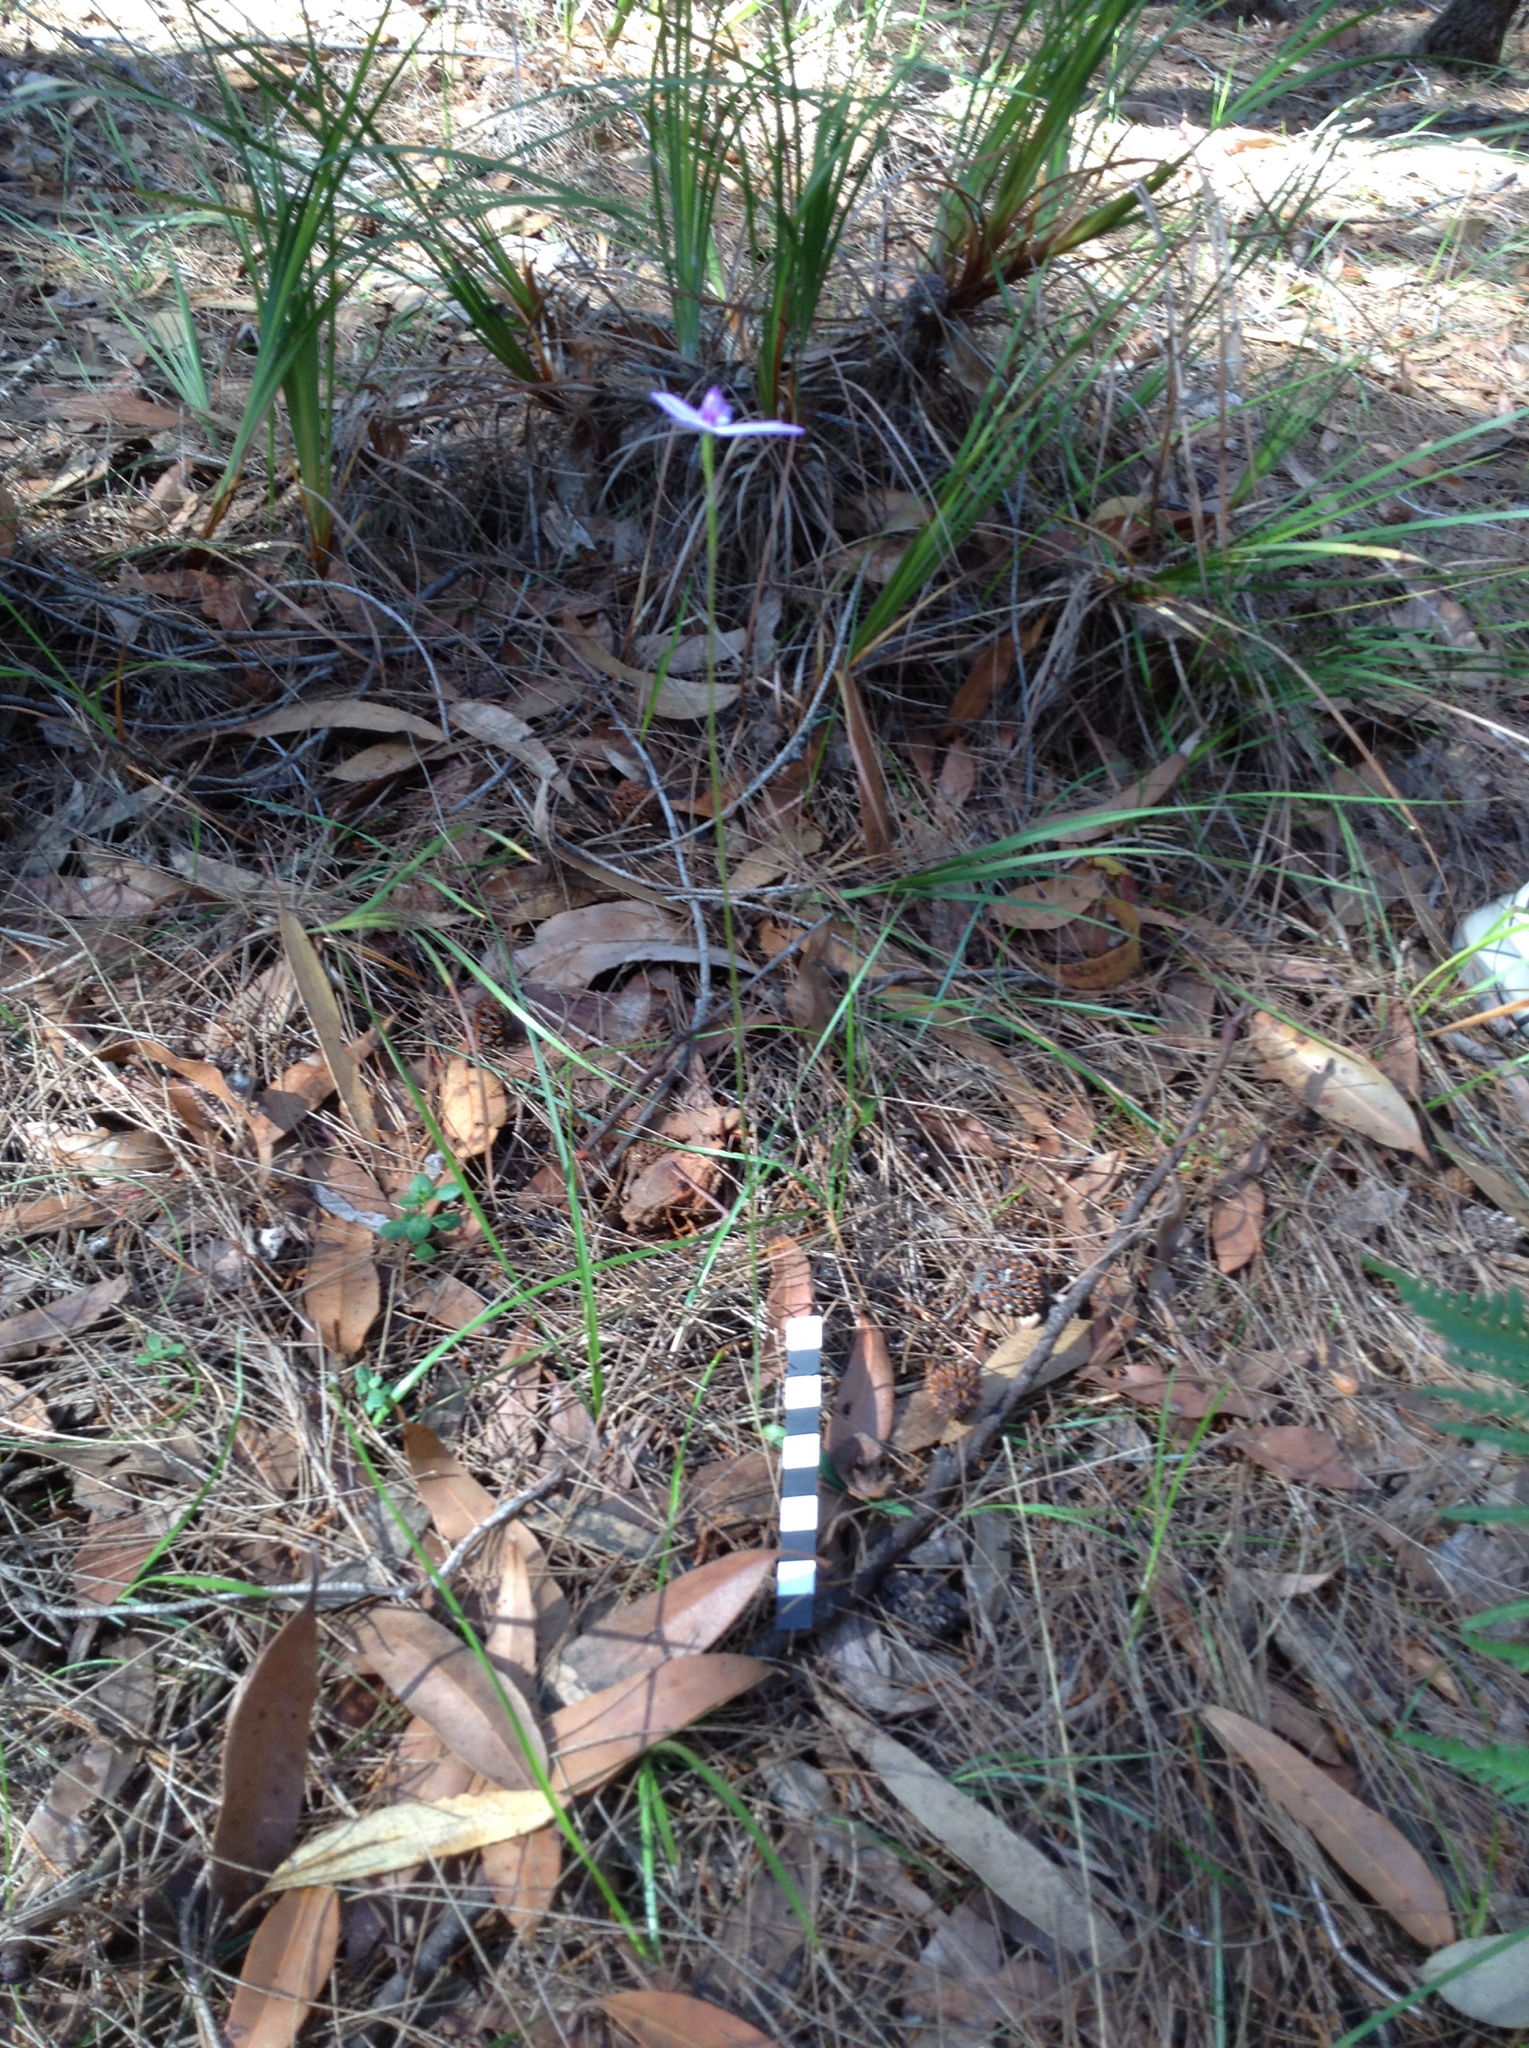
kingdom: Plantae
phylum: Tracheophyta
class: Liliopsida
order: Asparagales
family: Orchidaceae
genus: Caladenia
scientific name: Caladenia major
